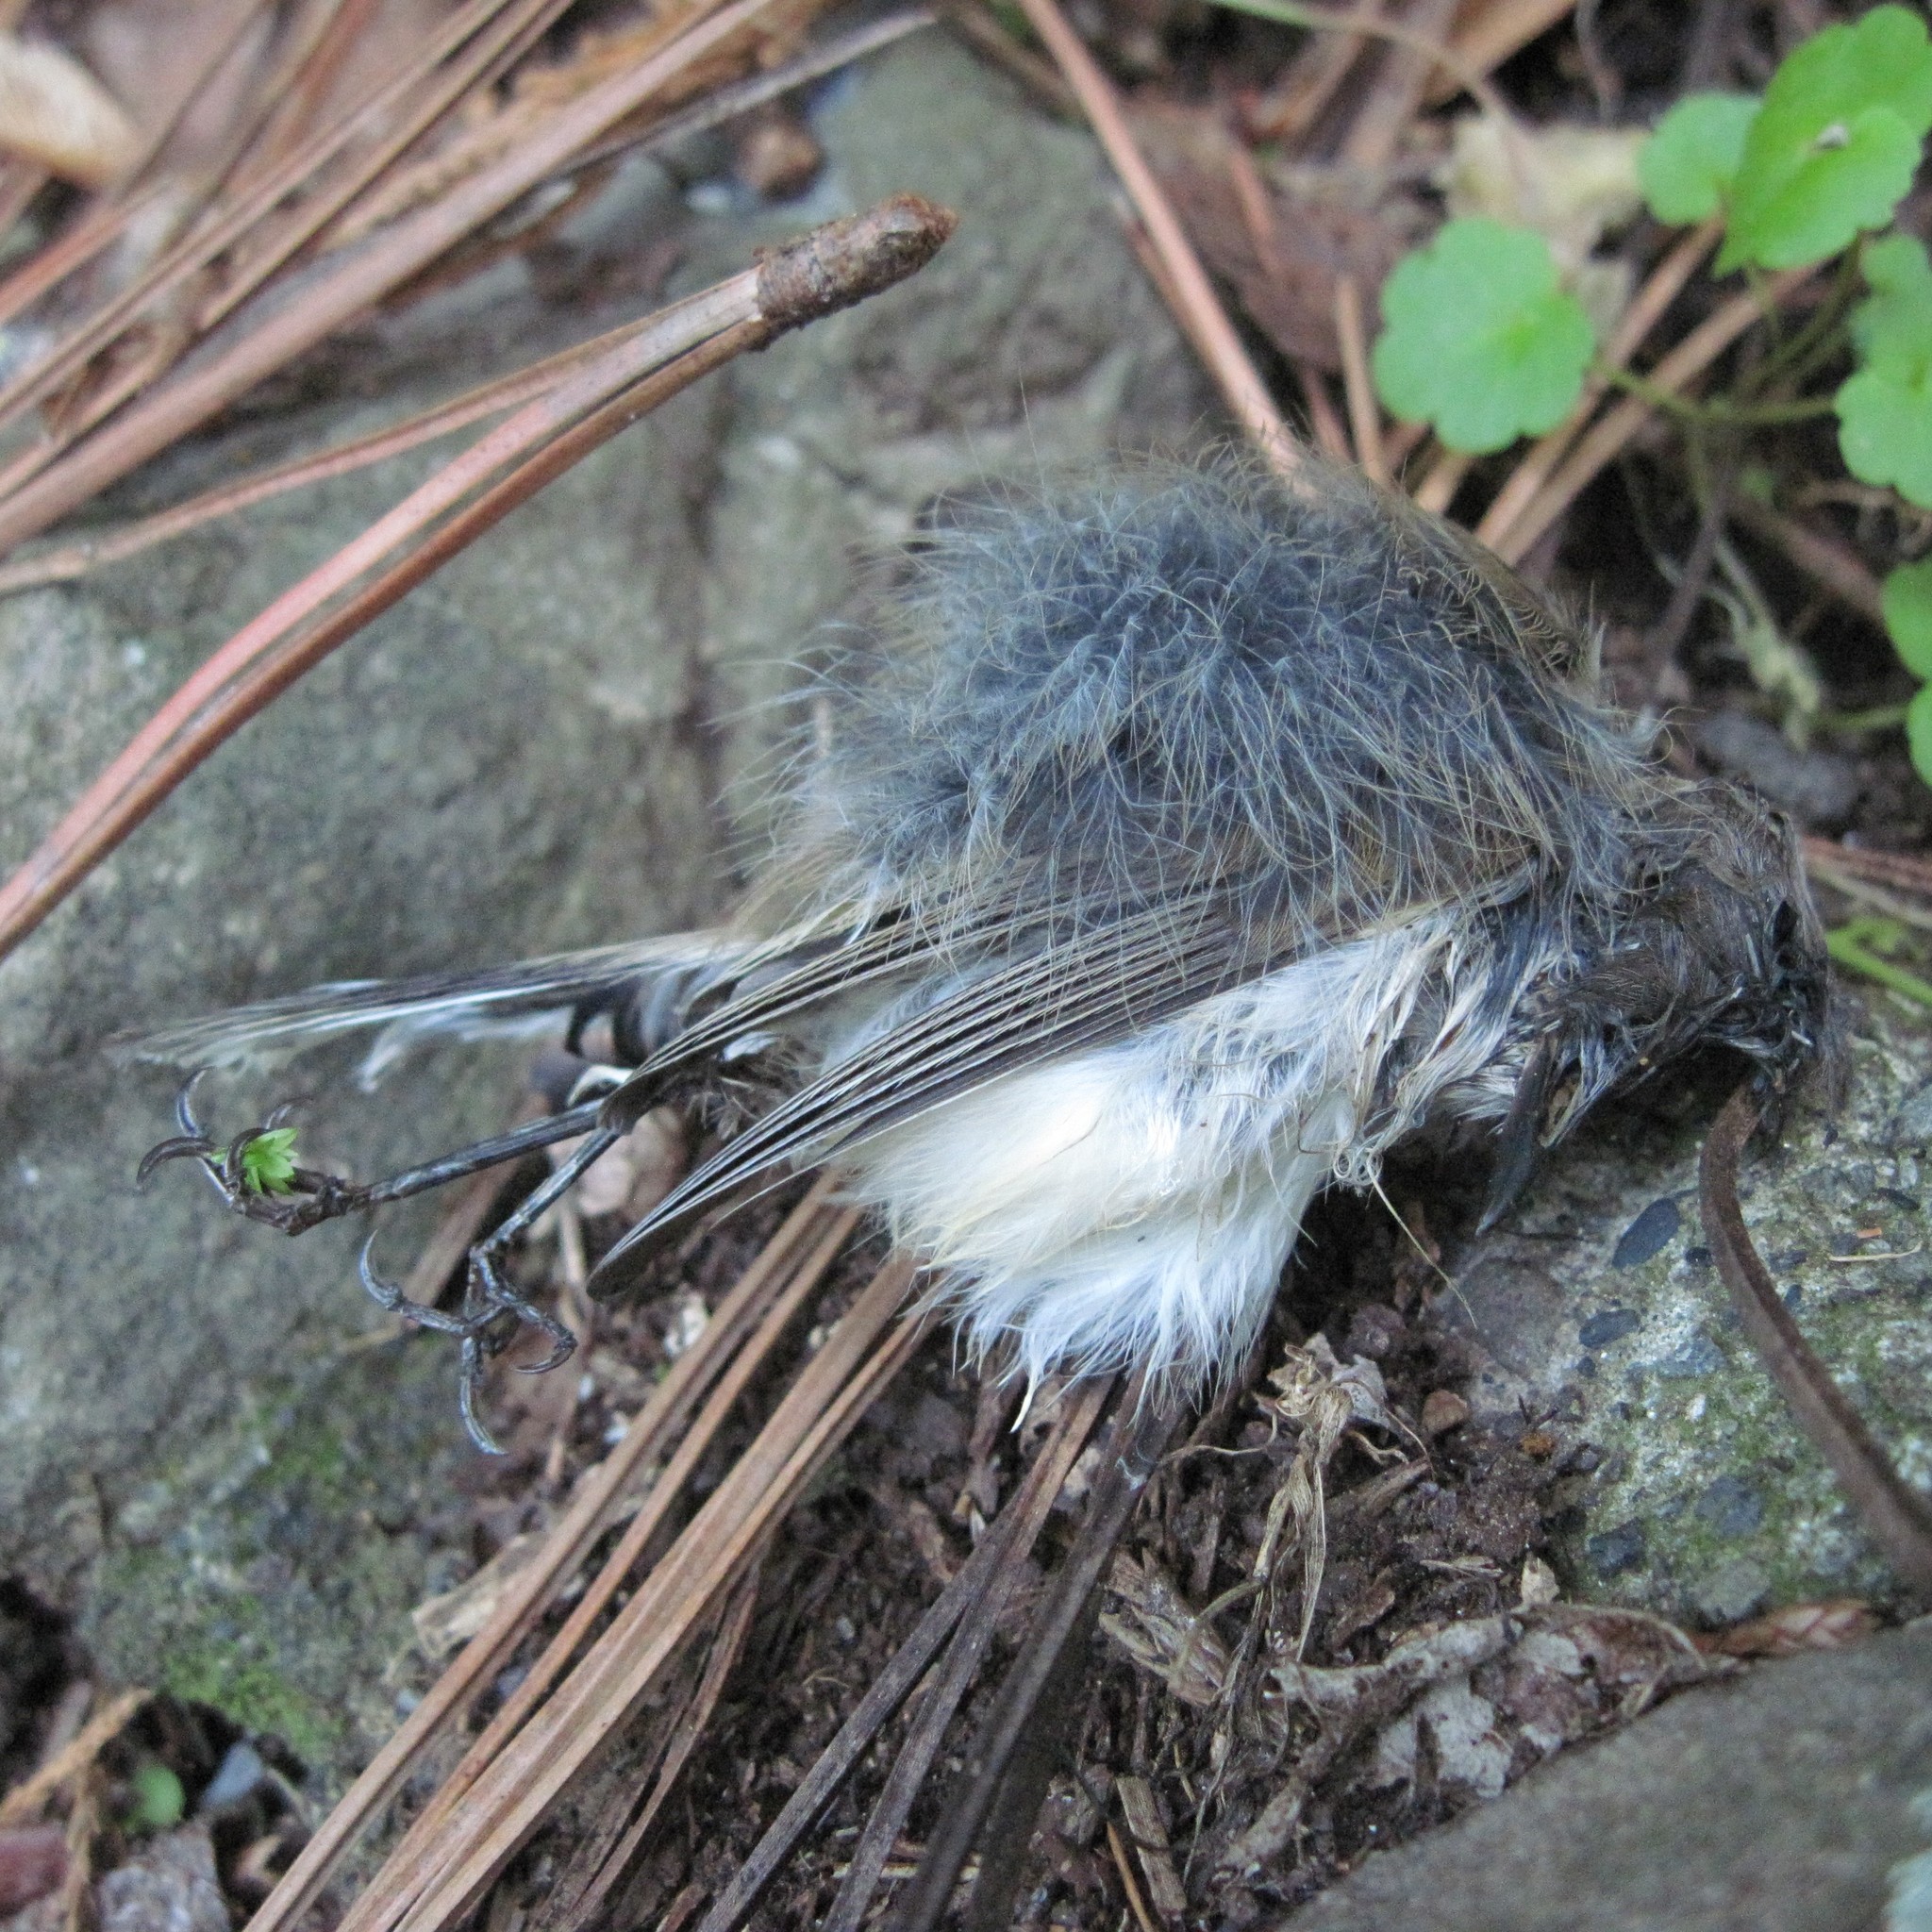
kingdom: Animalia
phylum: Chordata
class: Aves
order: Passeriformes
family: Acanthizidae
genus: Gerygone
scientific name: Gerygone igata
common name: Grey gerygone
